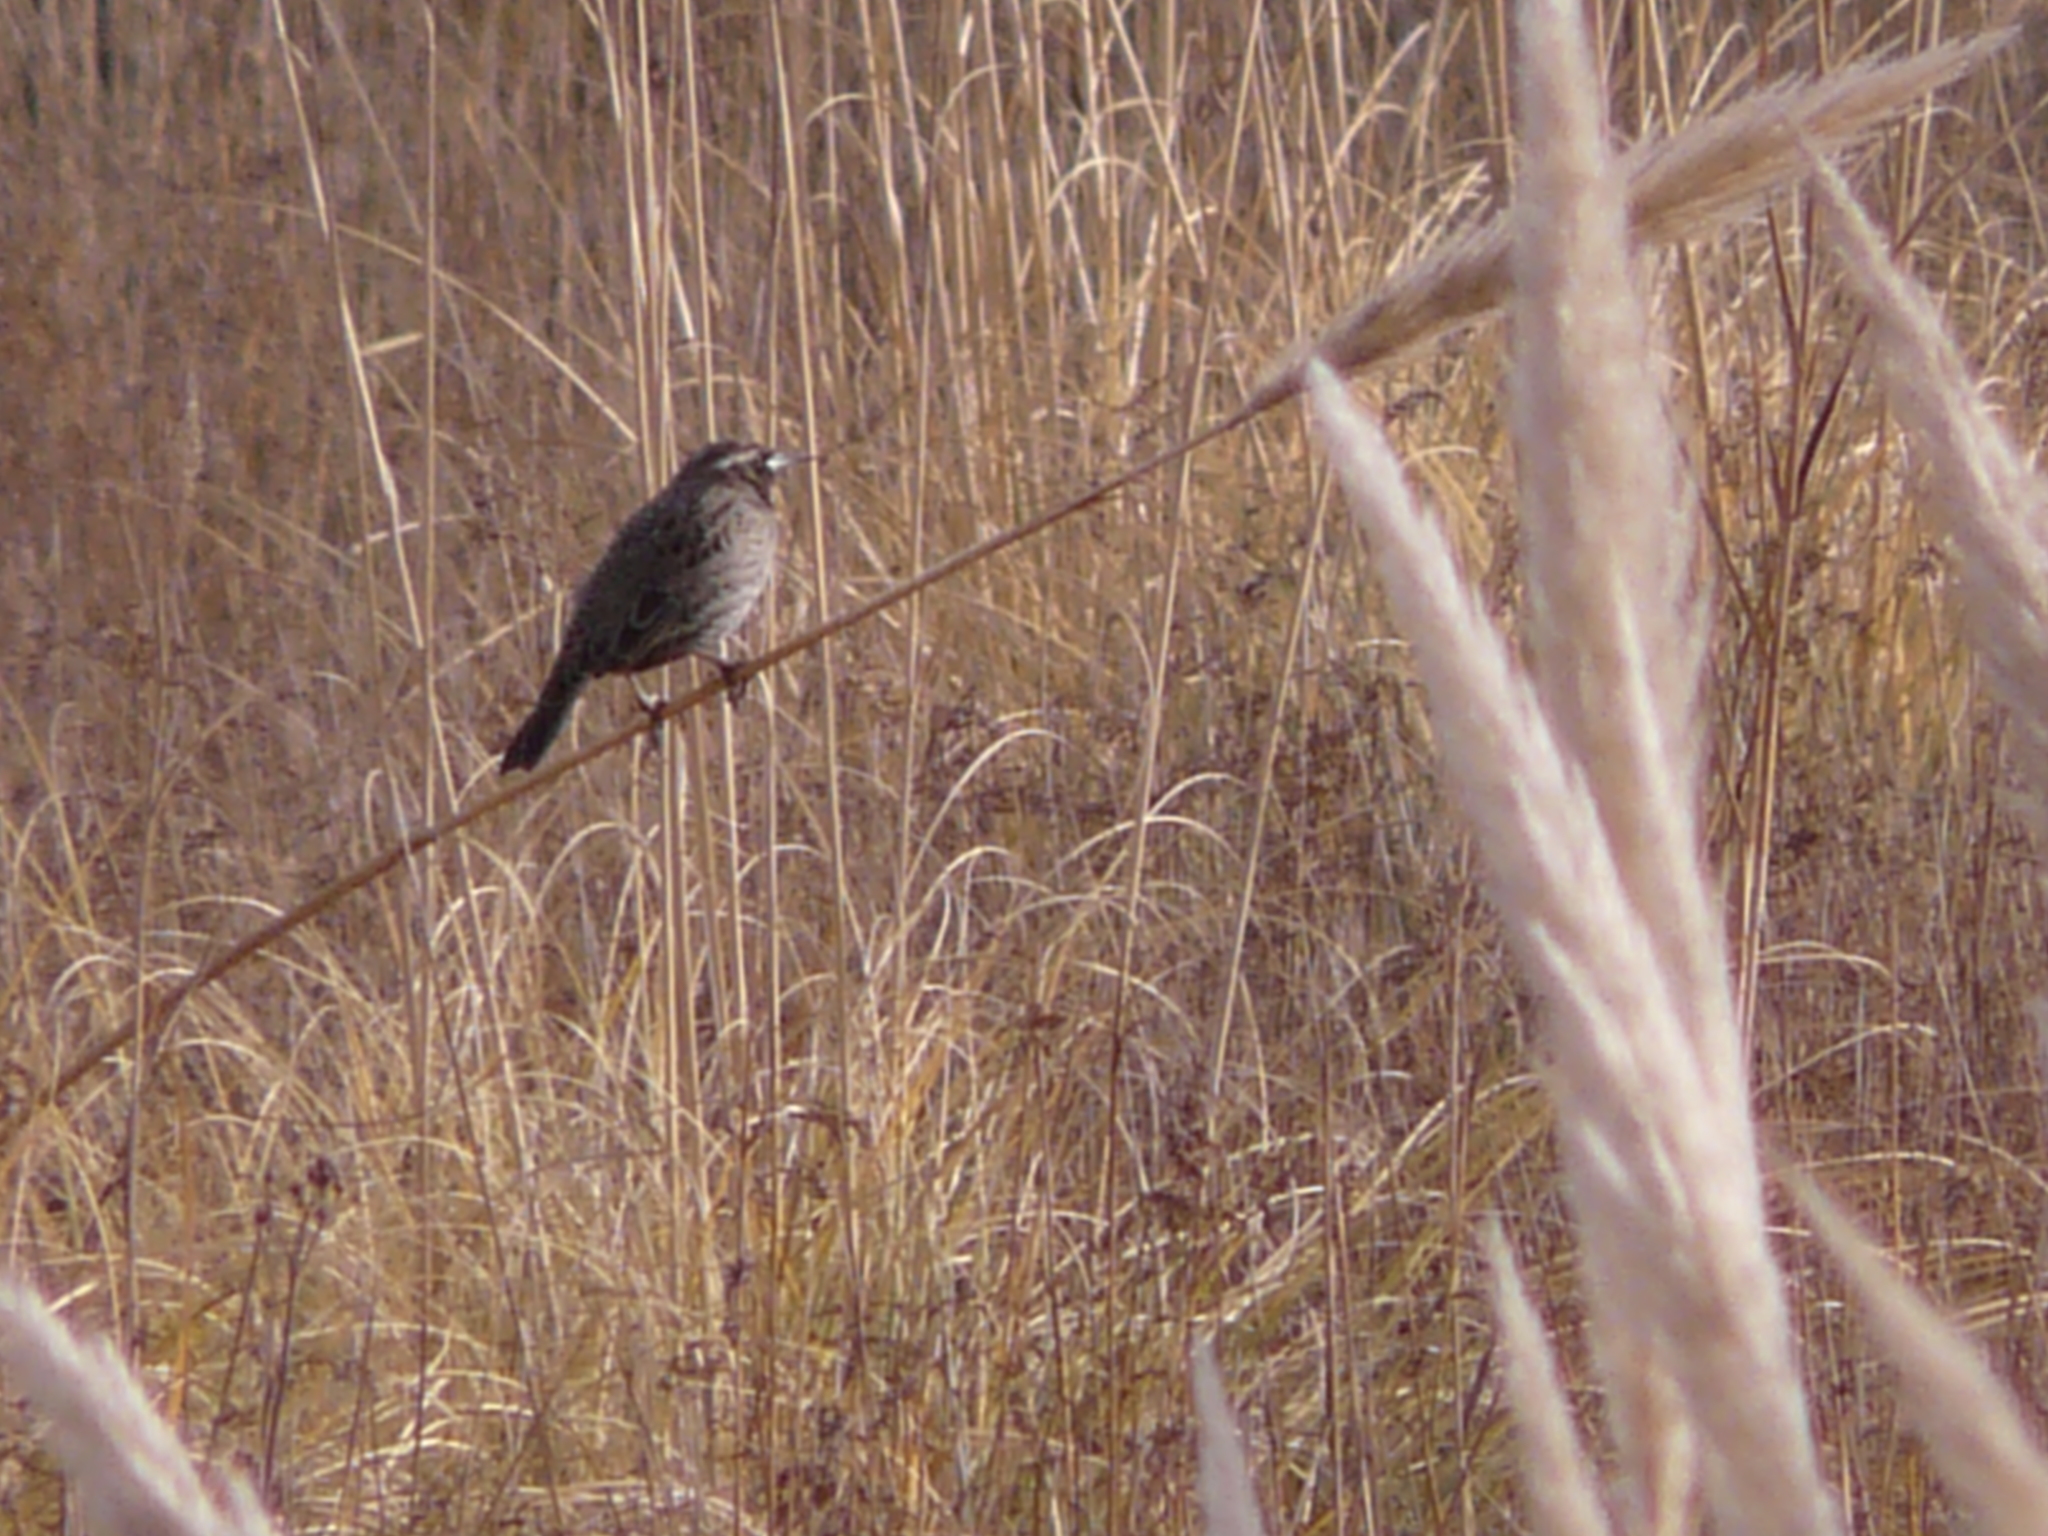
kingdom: Animalia
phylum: Chordata
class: Aves
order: Passeriformes
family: Icteridae
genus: Sturnella
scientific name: Sturnella loyca
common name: Long-tailed meadowlark
